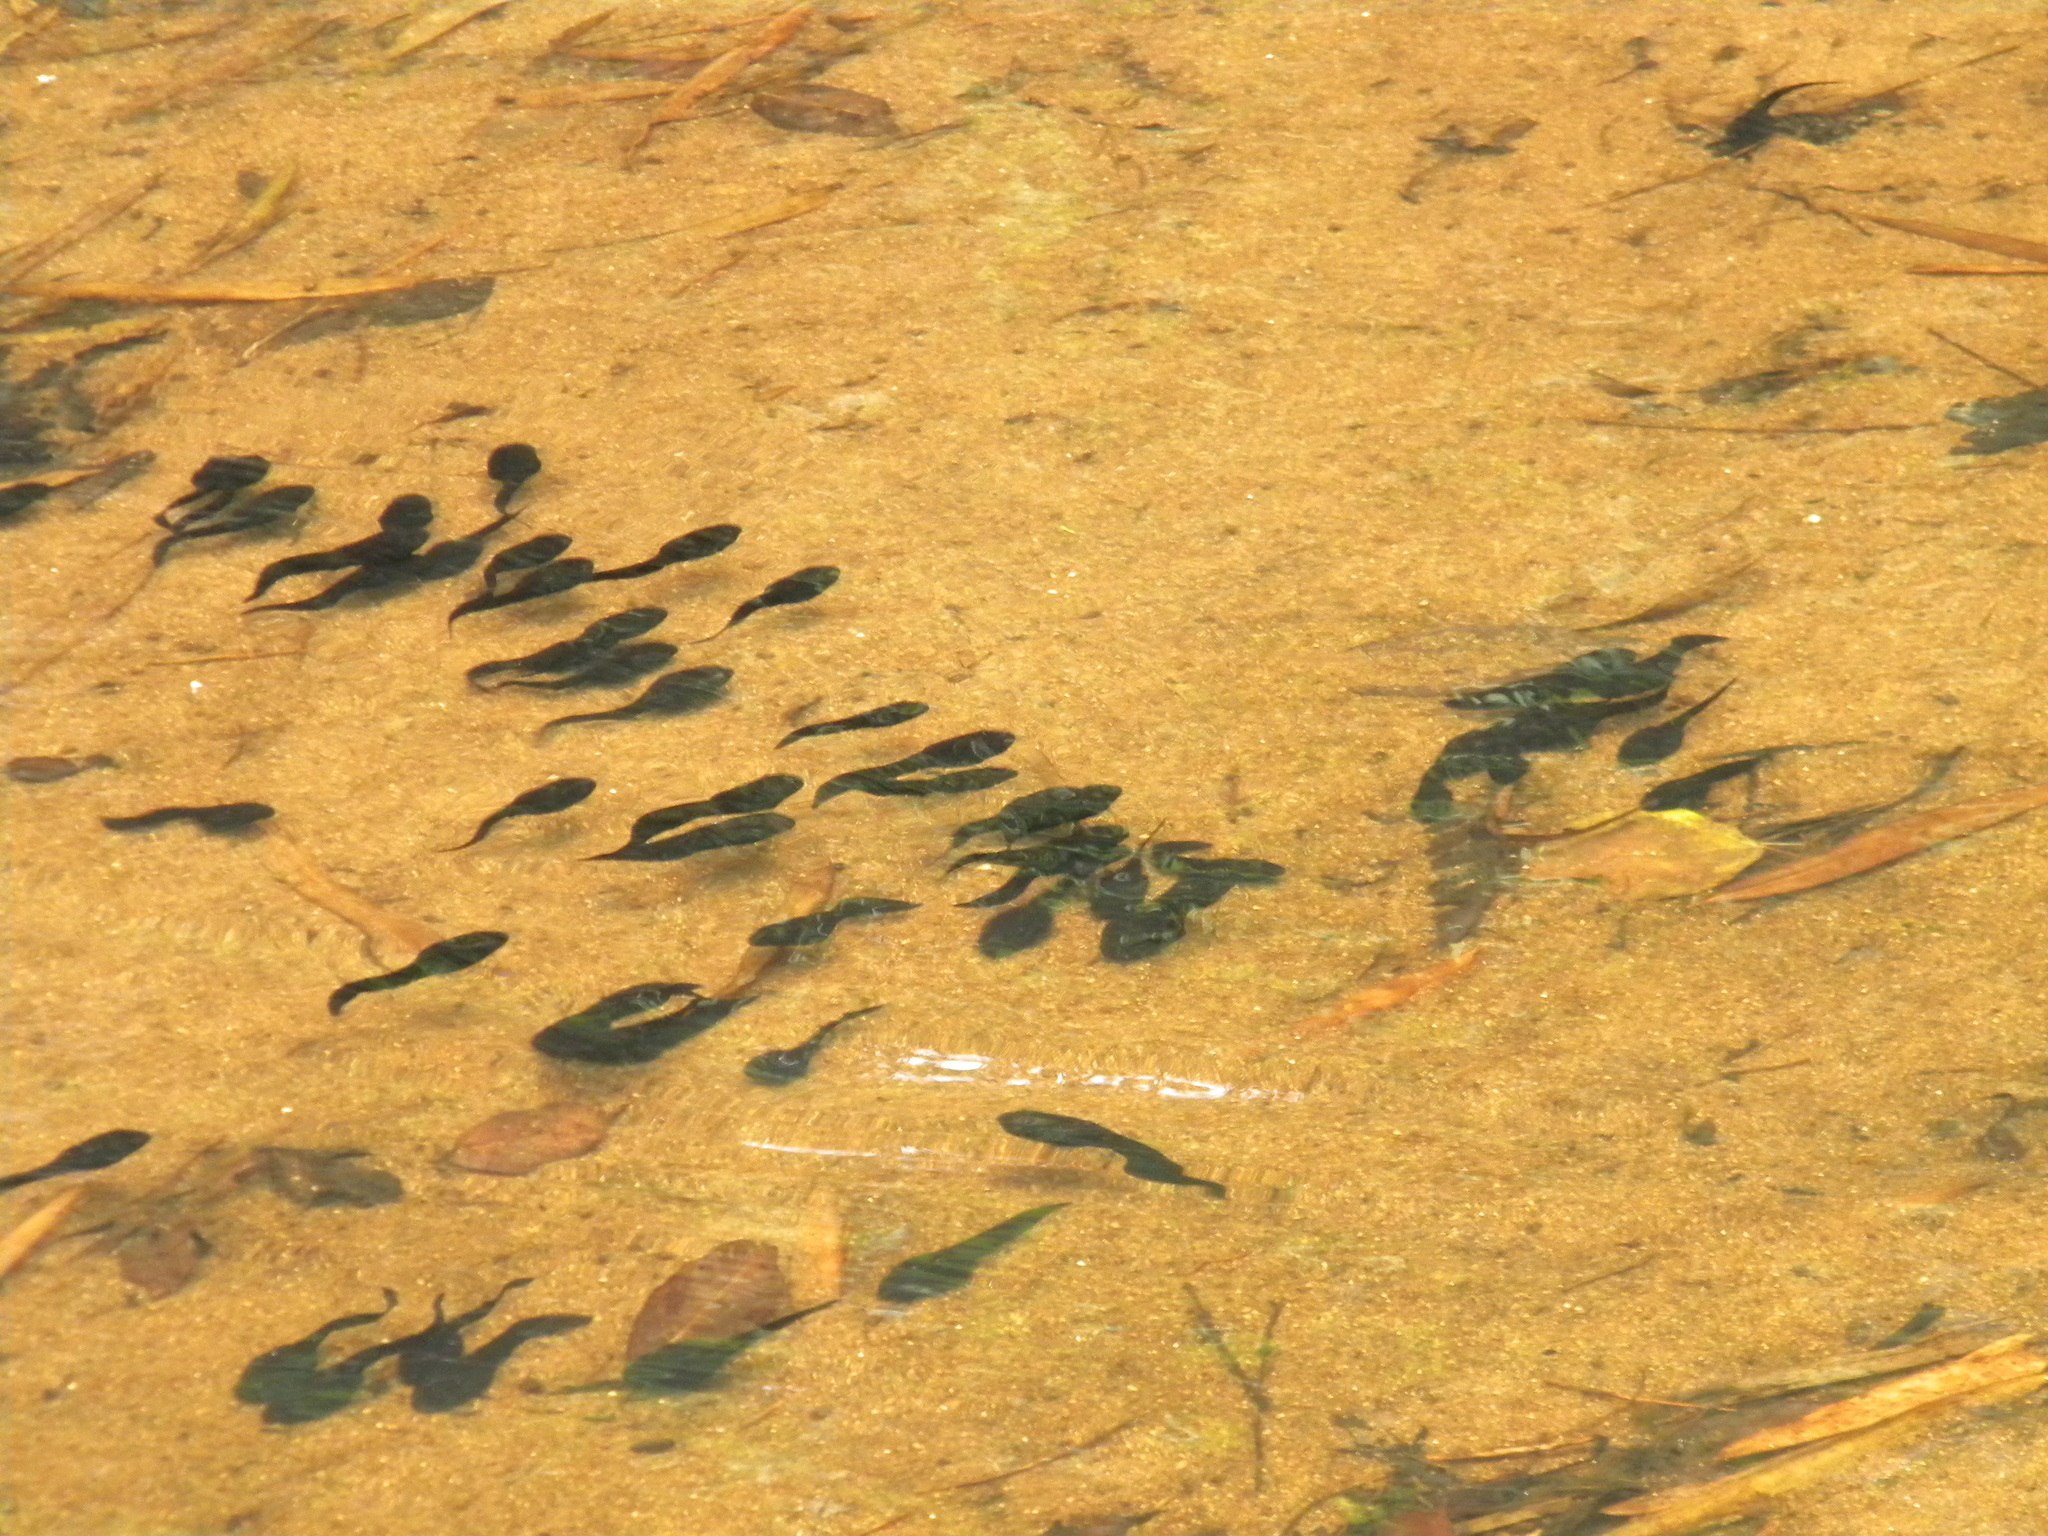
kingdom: Animalia
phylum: Chordata
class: Amphibia
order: Anura
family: Ranidae
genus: Clinotarsus
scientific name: Clinotarsus curtipes
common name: Bicoloured frog
